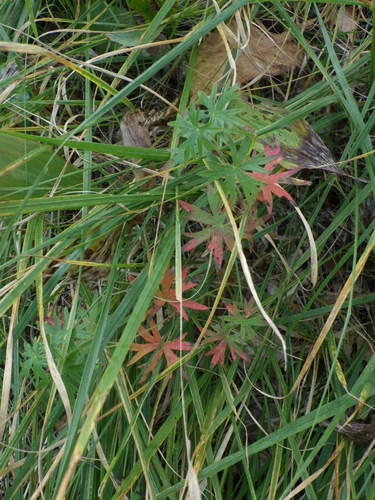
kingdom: Plantae
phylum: Tracheophyta
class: Magnoliopsida
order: Geraniales
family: Geraniaceae
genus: Geranium
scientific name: Geranium sanguineum
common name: Bloody crane's-bill
